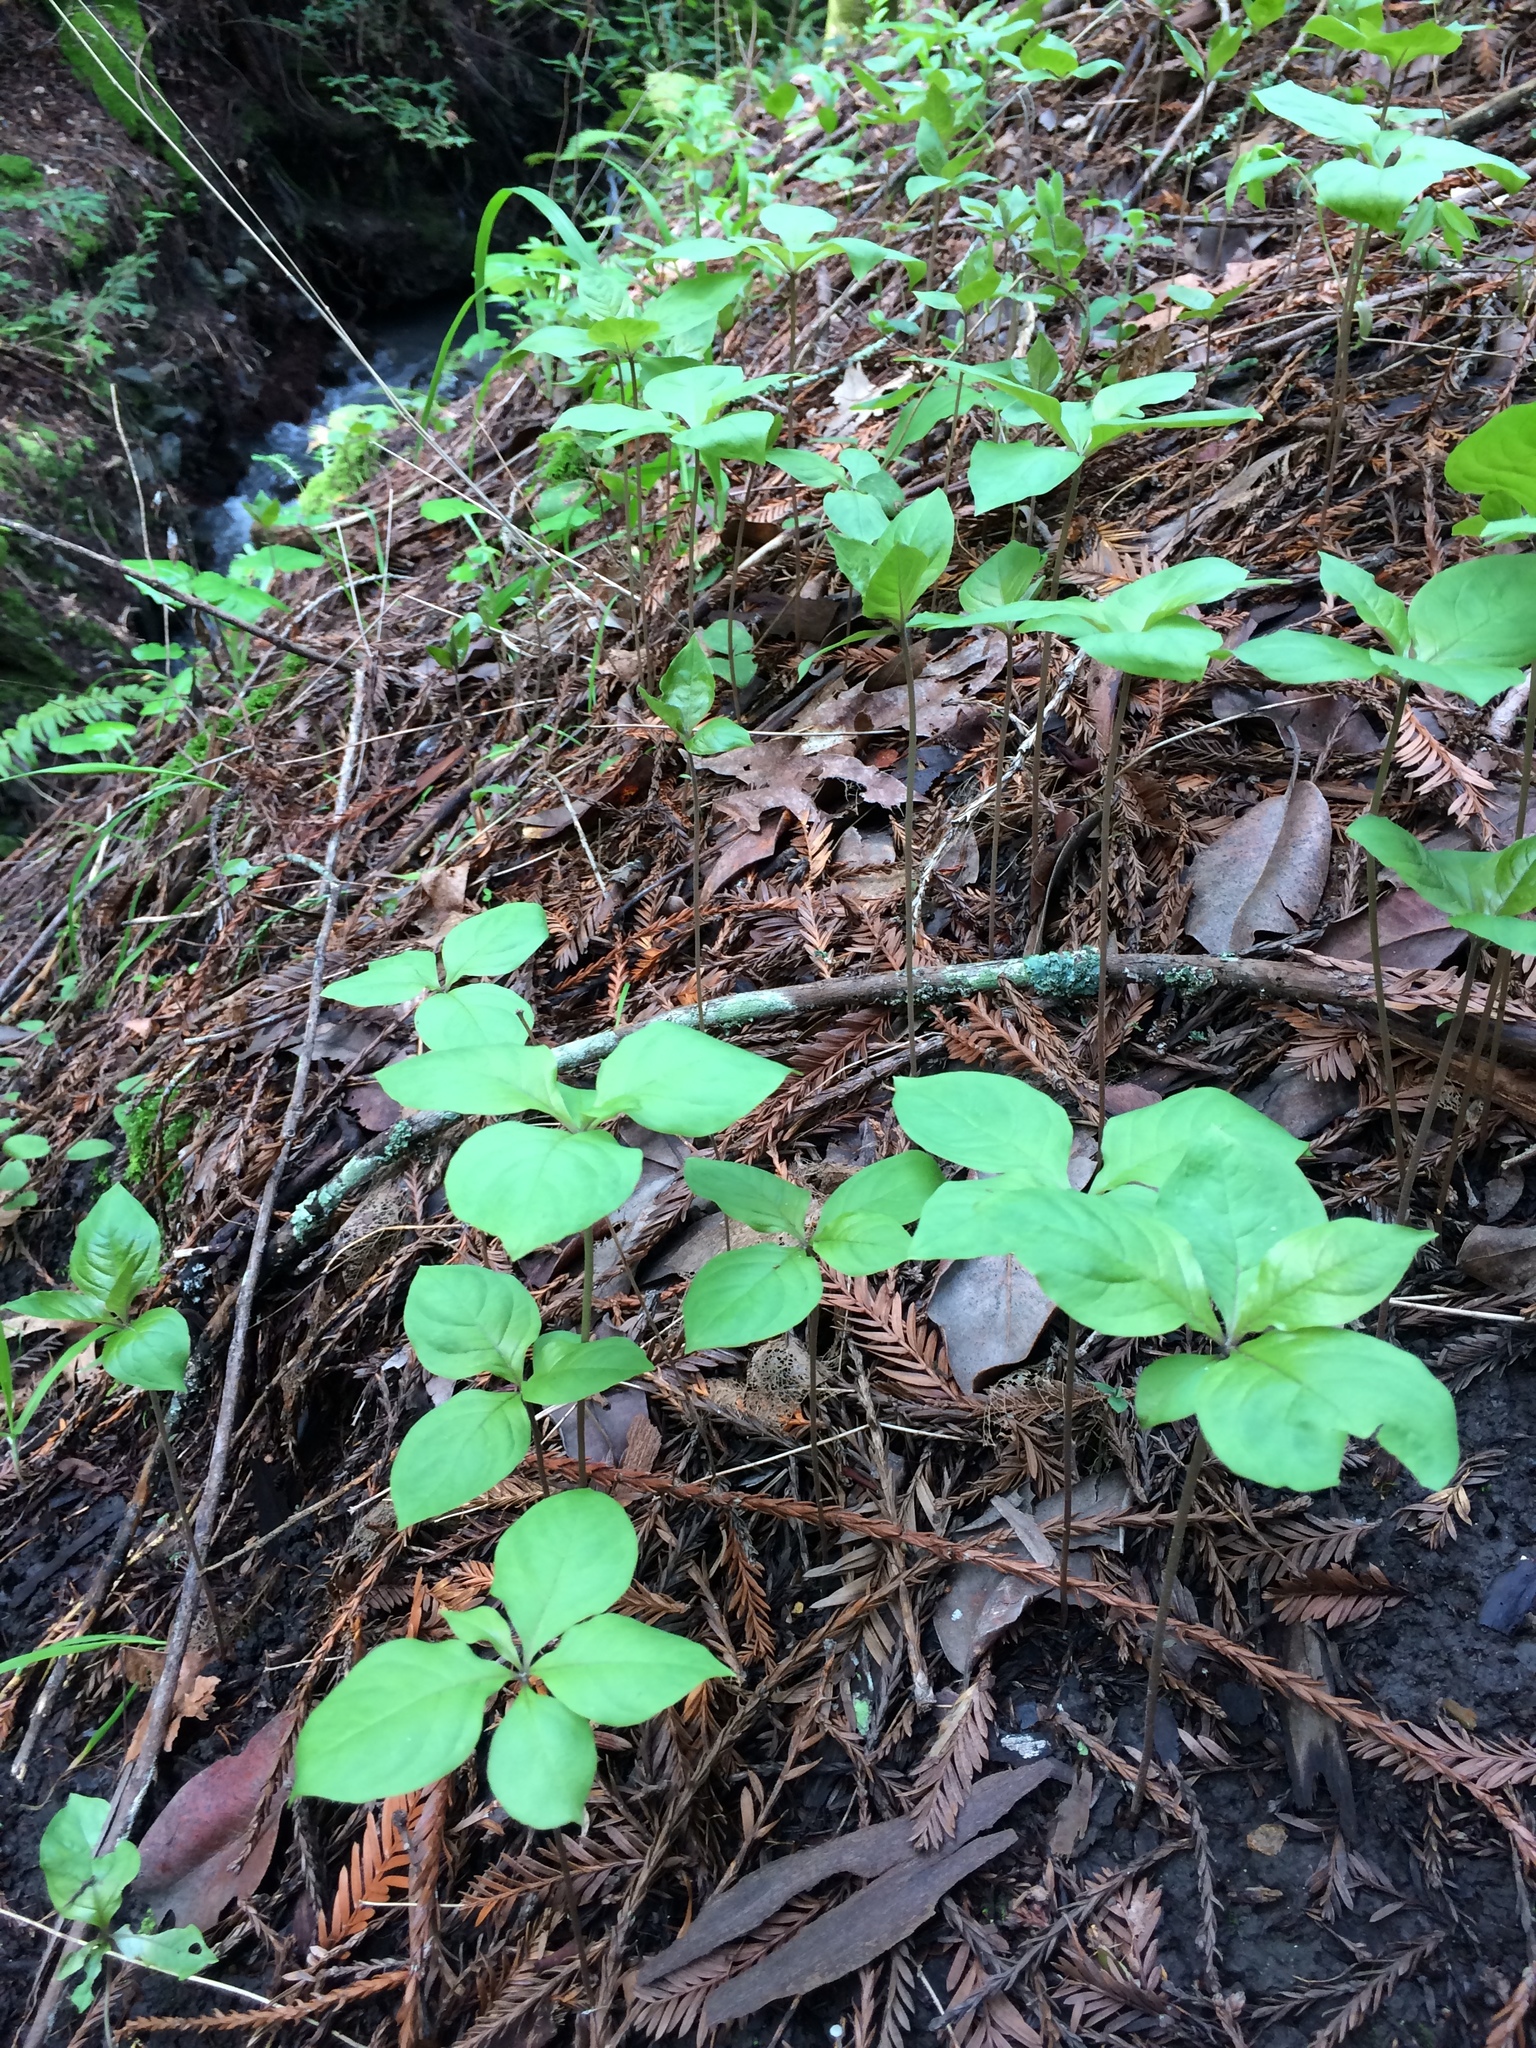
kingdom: Plantae
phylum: Tracheophyta
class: Magnoliopsida
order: Ericales
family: Primulaceae
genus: Lysimachia
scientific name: Lysimachia latifolia
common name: Pacific starflower
